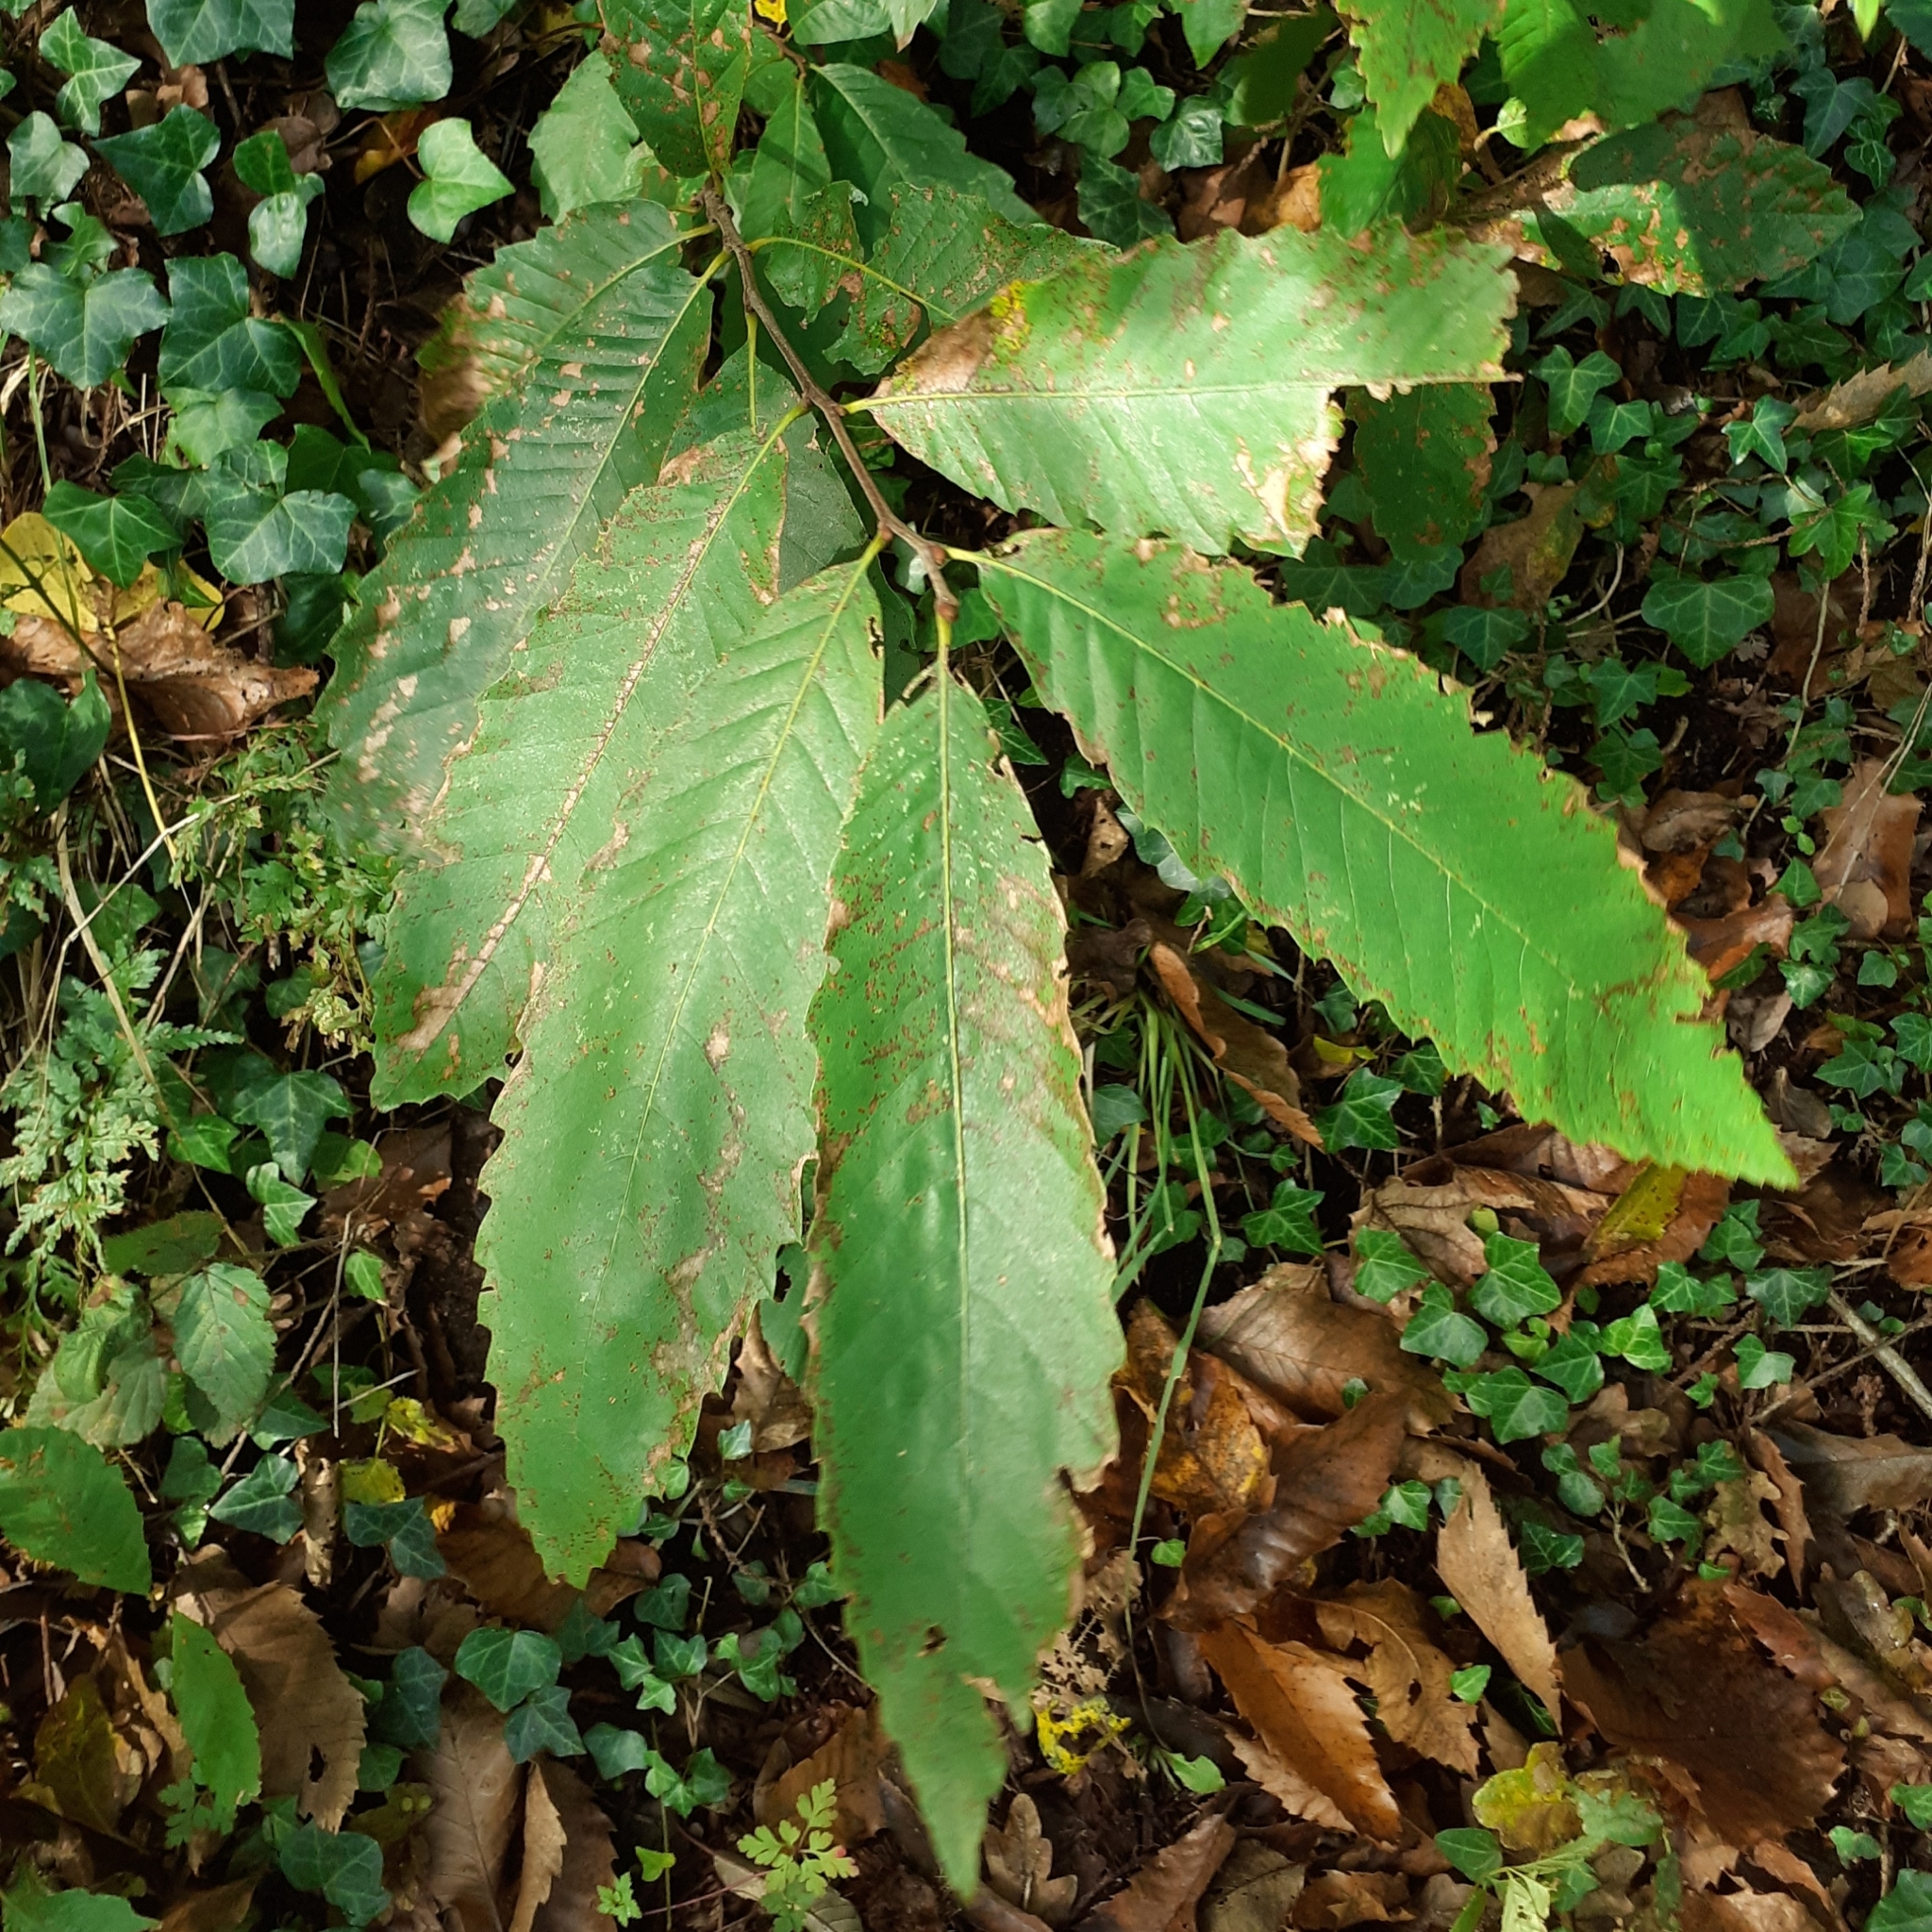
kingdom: Plantae
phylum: Tracheophyta
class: Magnoliopsida
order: Fagales
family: Fagaceae
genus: Castanea
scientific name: Castanea sativa
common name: Sweet chestnut
